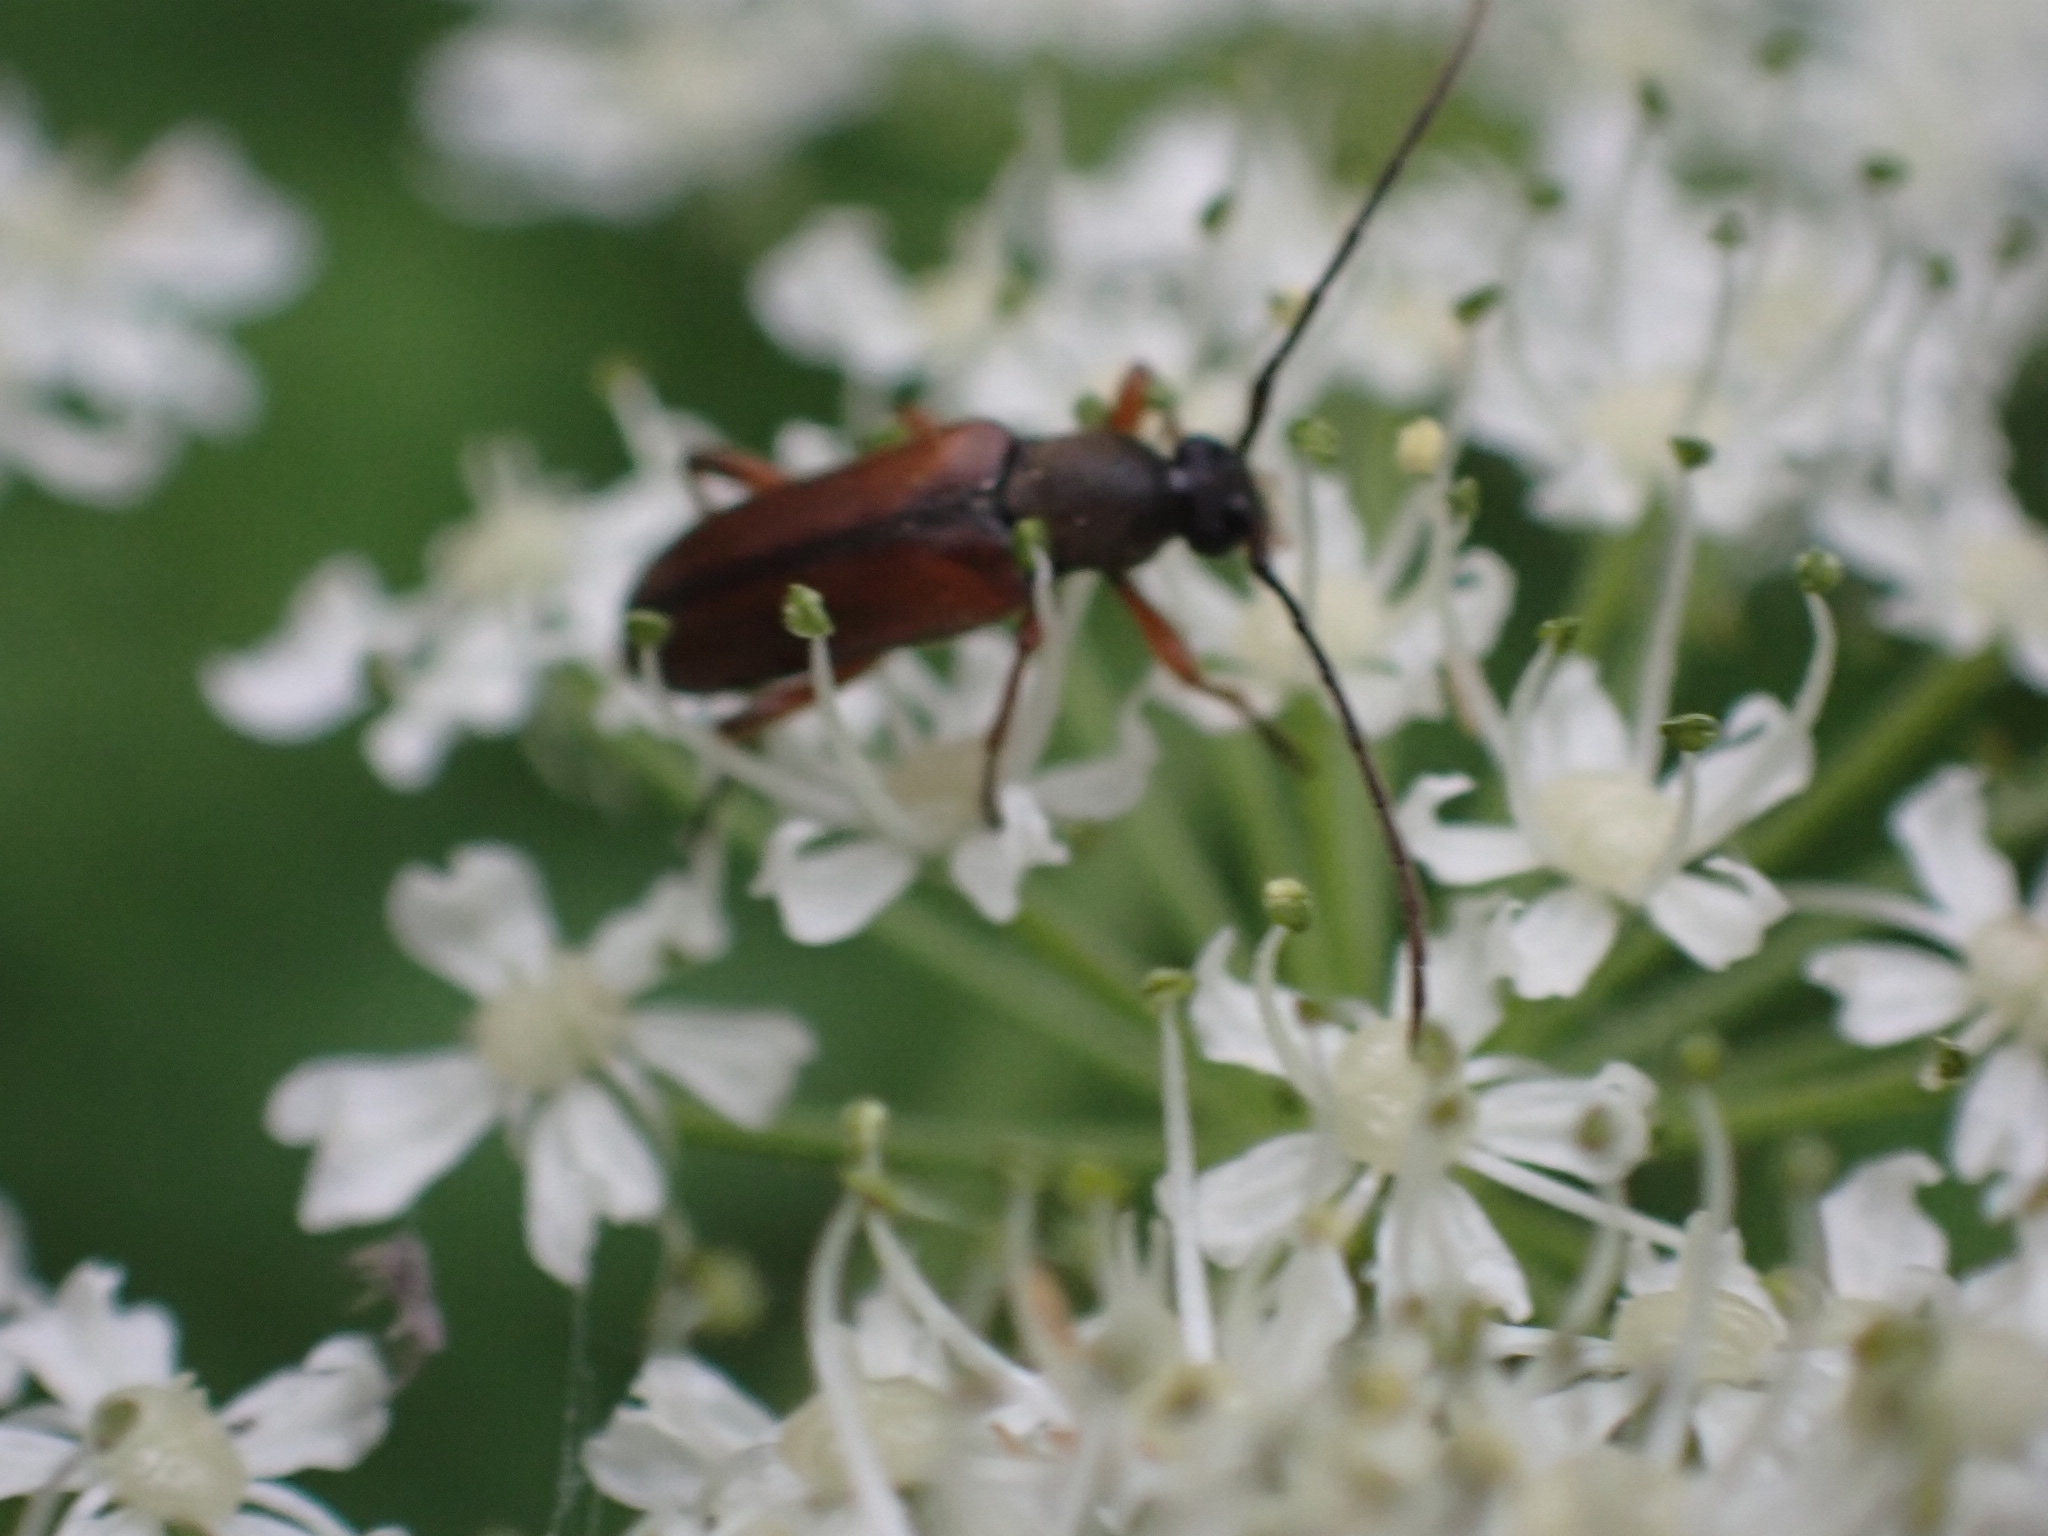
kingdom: Animalia
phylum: Arthropoda
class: Insecta
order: Coleoptera
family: Cerambycidae
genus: Alosterna
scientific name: Alosterna tabacicolor
